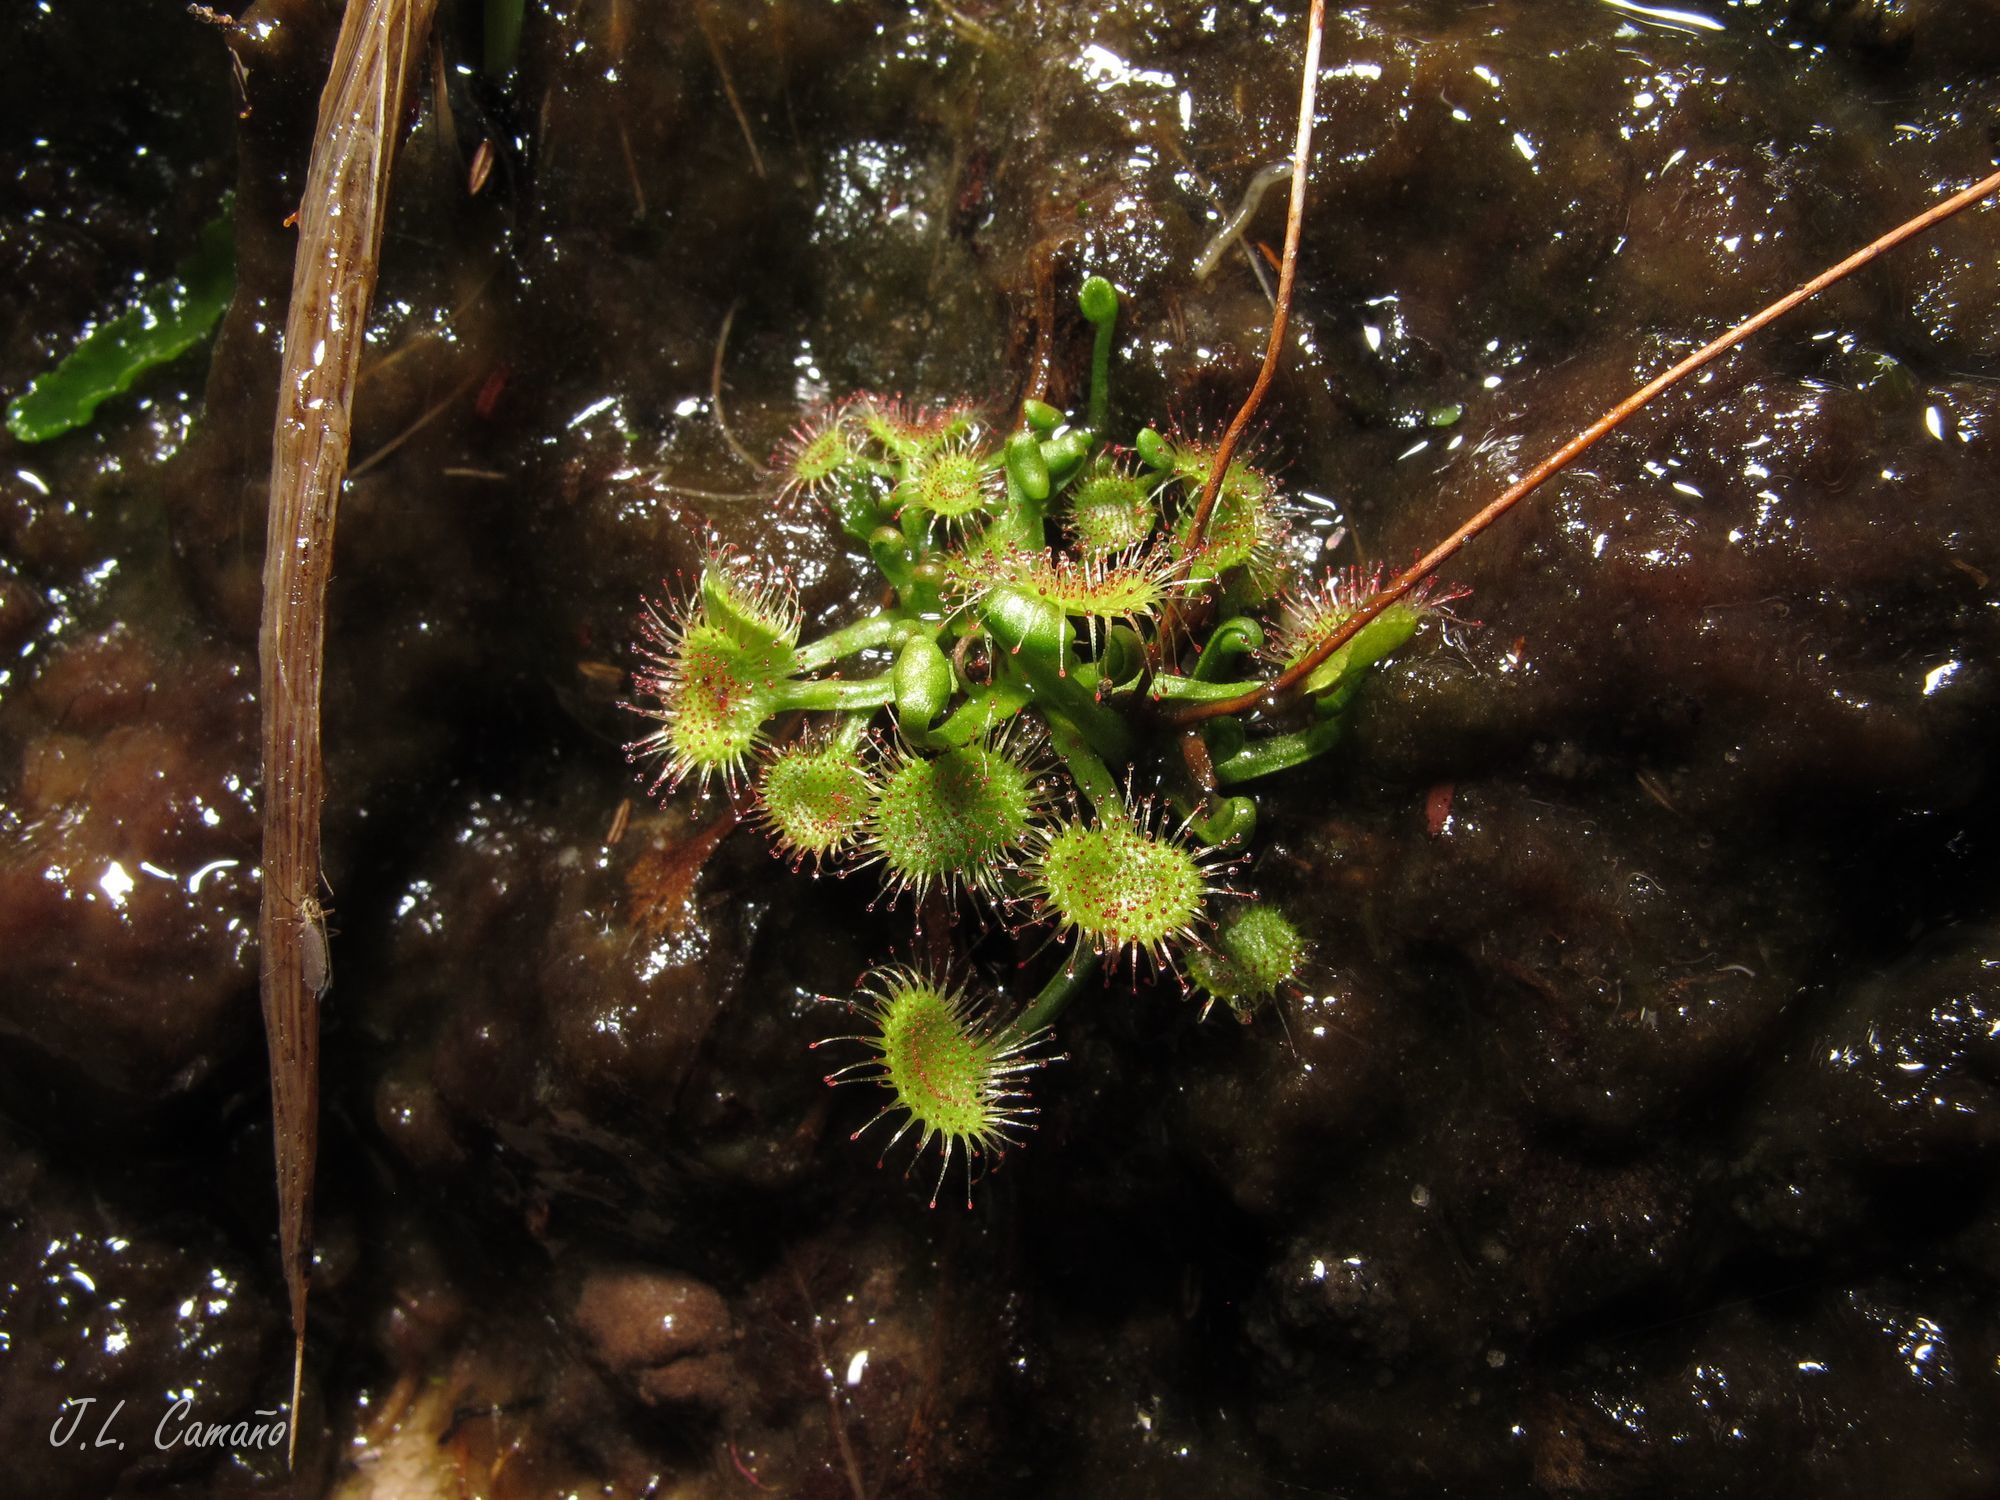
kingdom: Plantae
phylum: Tracheophyta
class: Magnoliopsida
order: Caryophyllales
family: Droseraceae
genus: Drosera
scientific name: Drosera rotundifolia
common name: Round-leaved sundew
